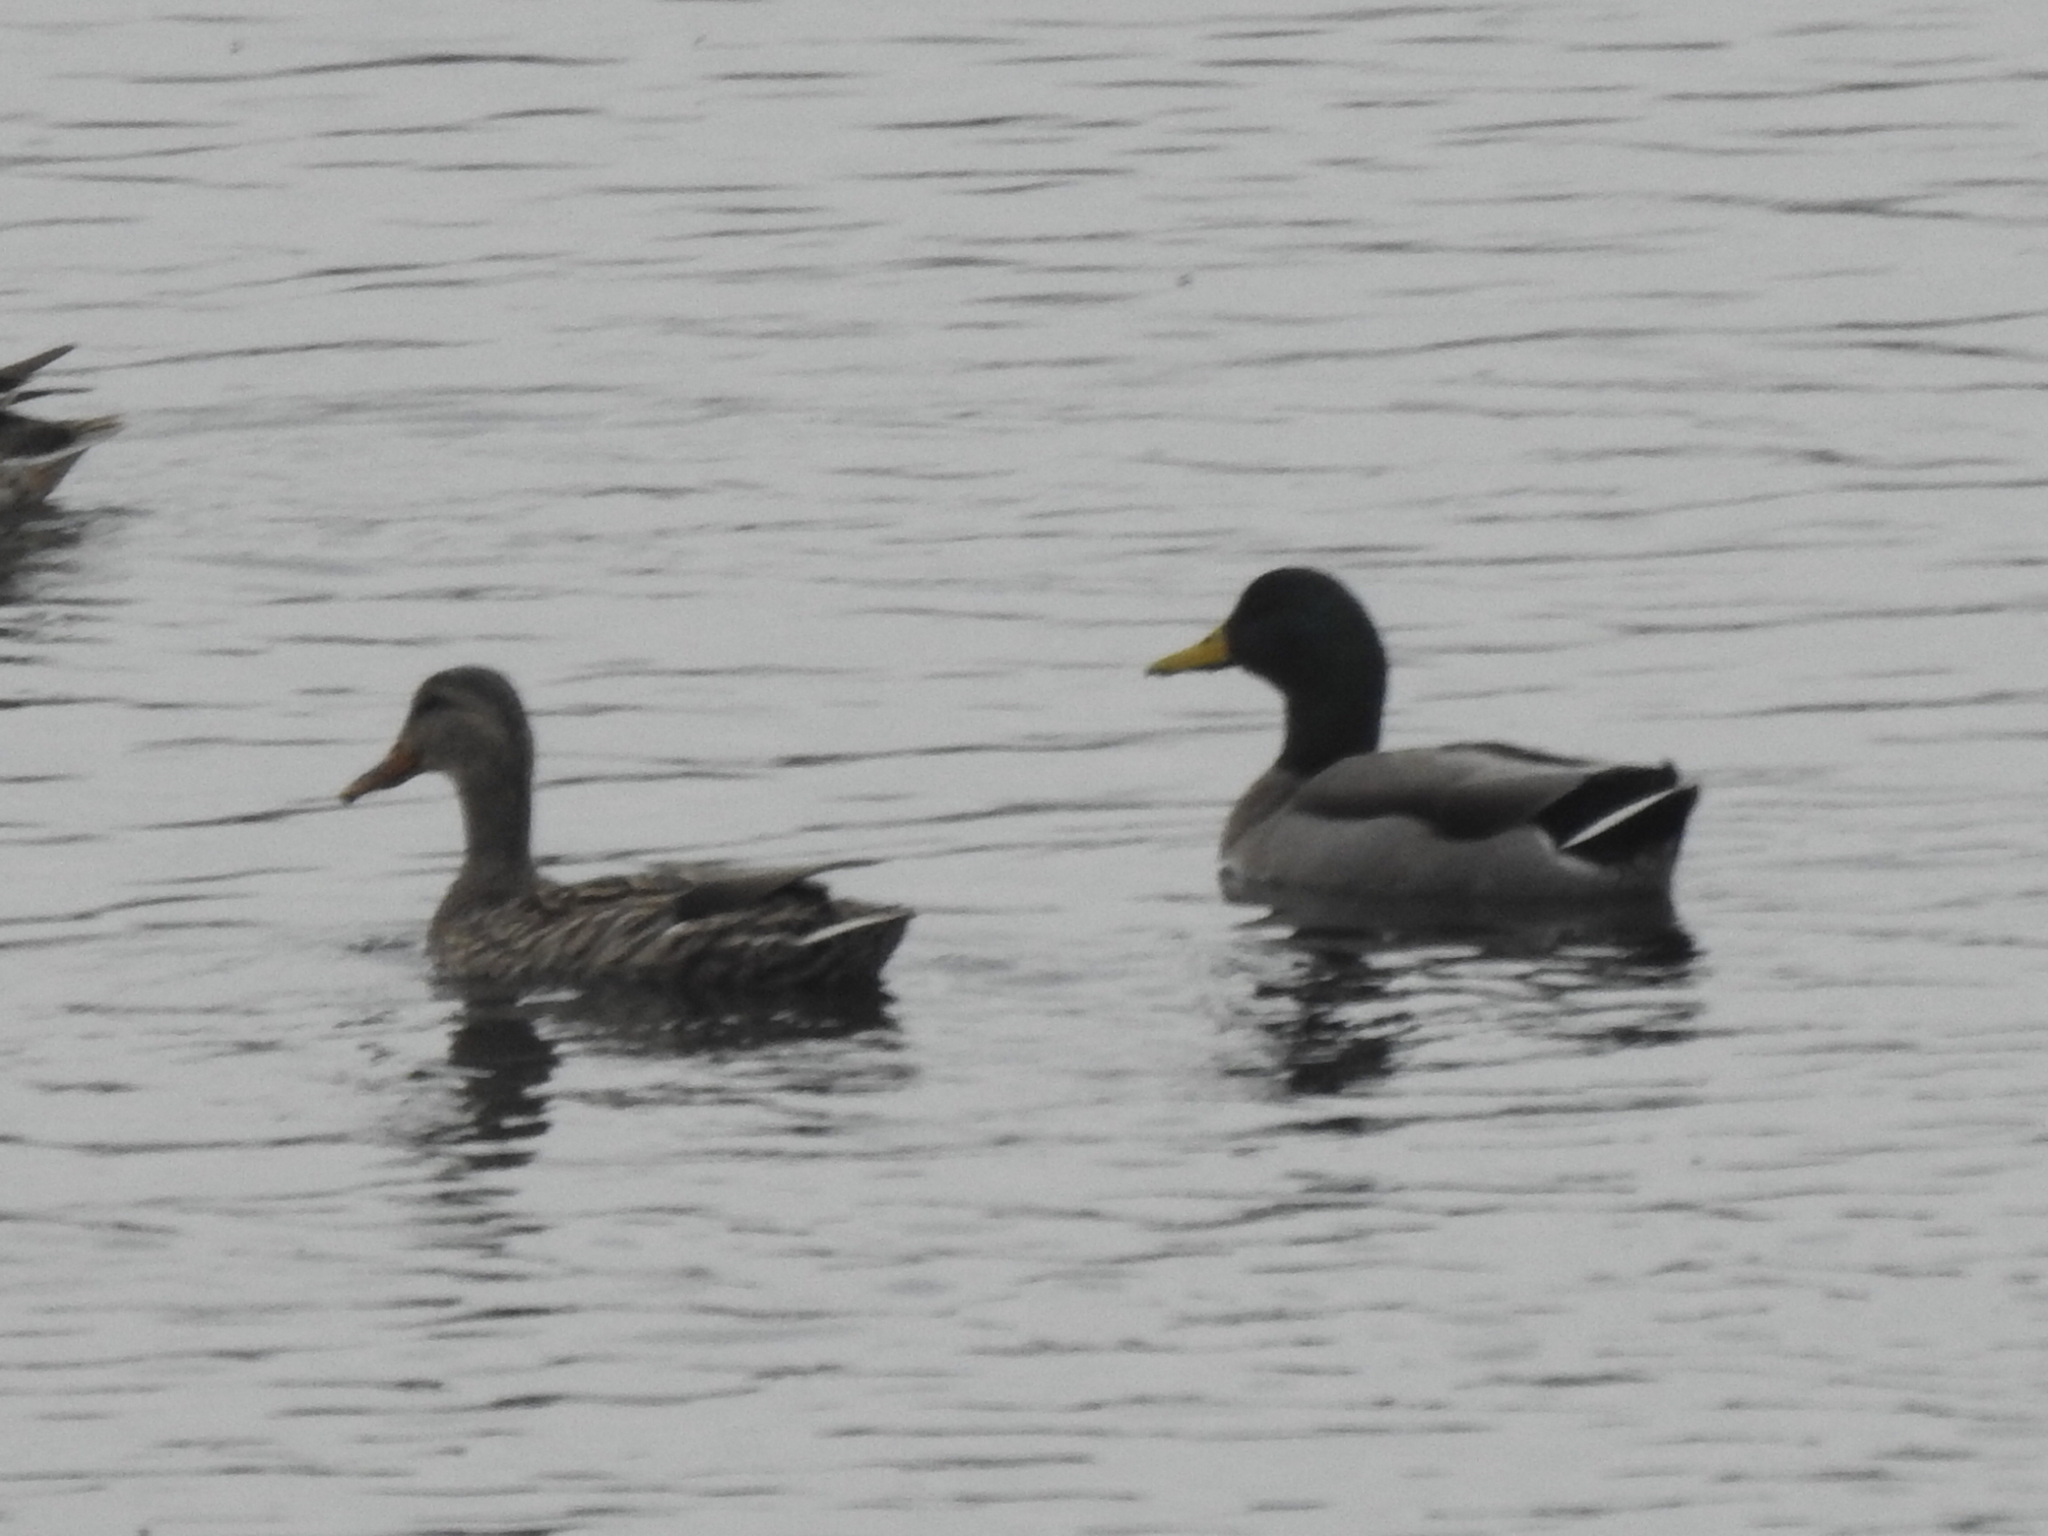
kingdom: Animalia
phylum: Chordata
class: Aves
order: Anseriformes
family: Anatidae
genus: Anas
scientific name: Anas platyrhynchos
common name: Mallard
